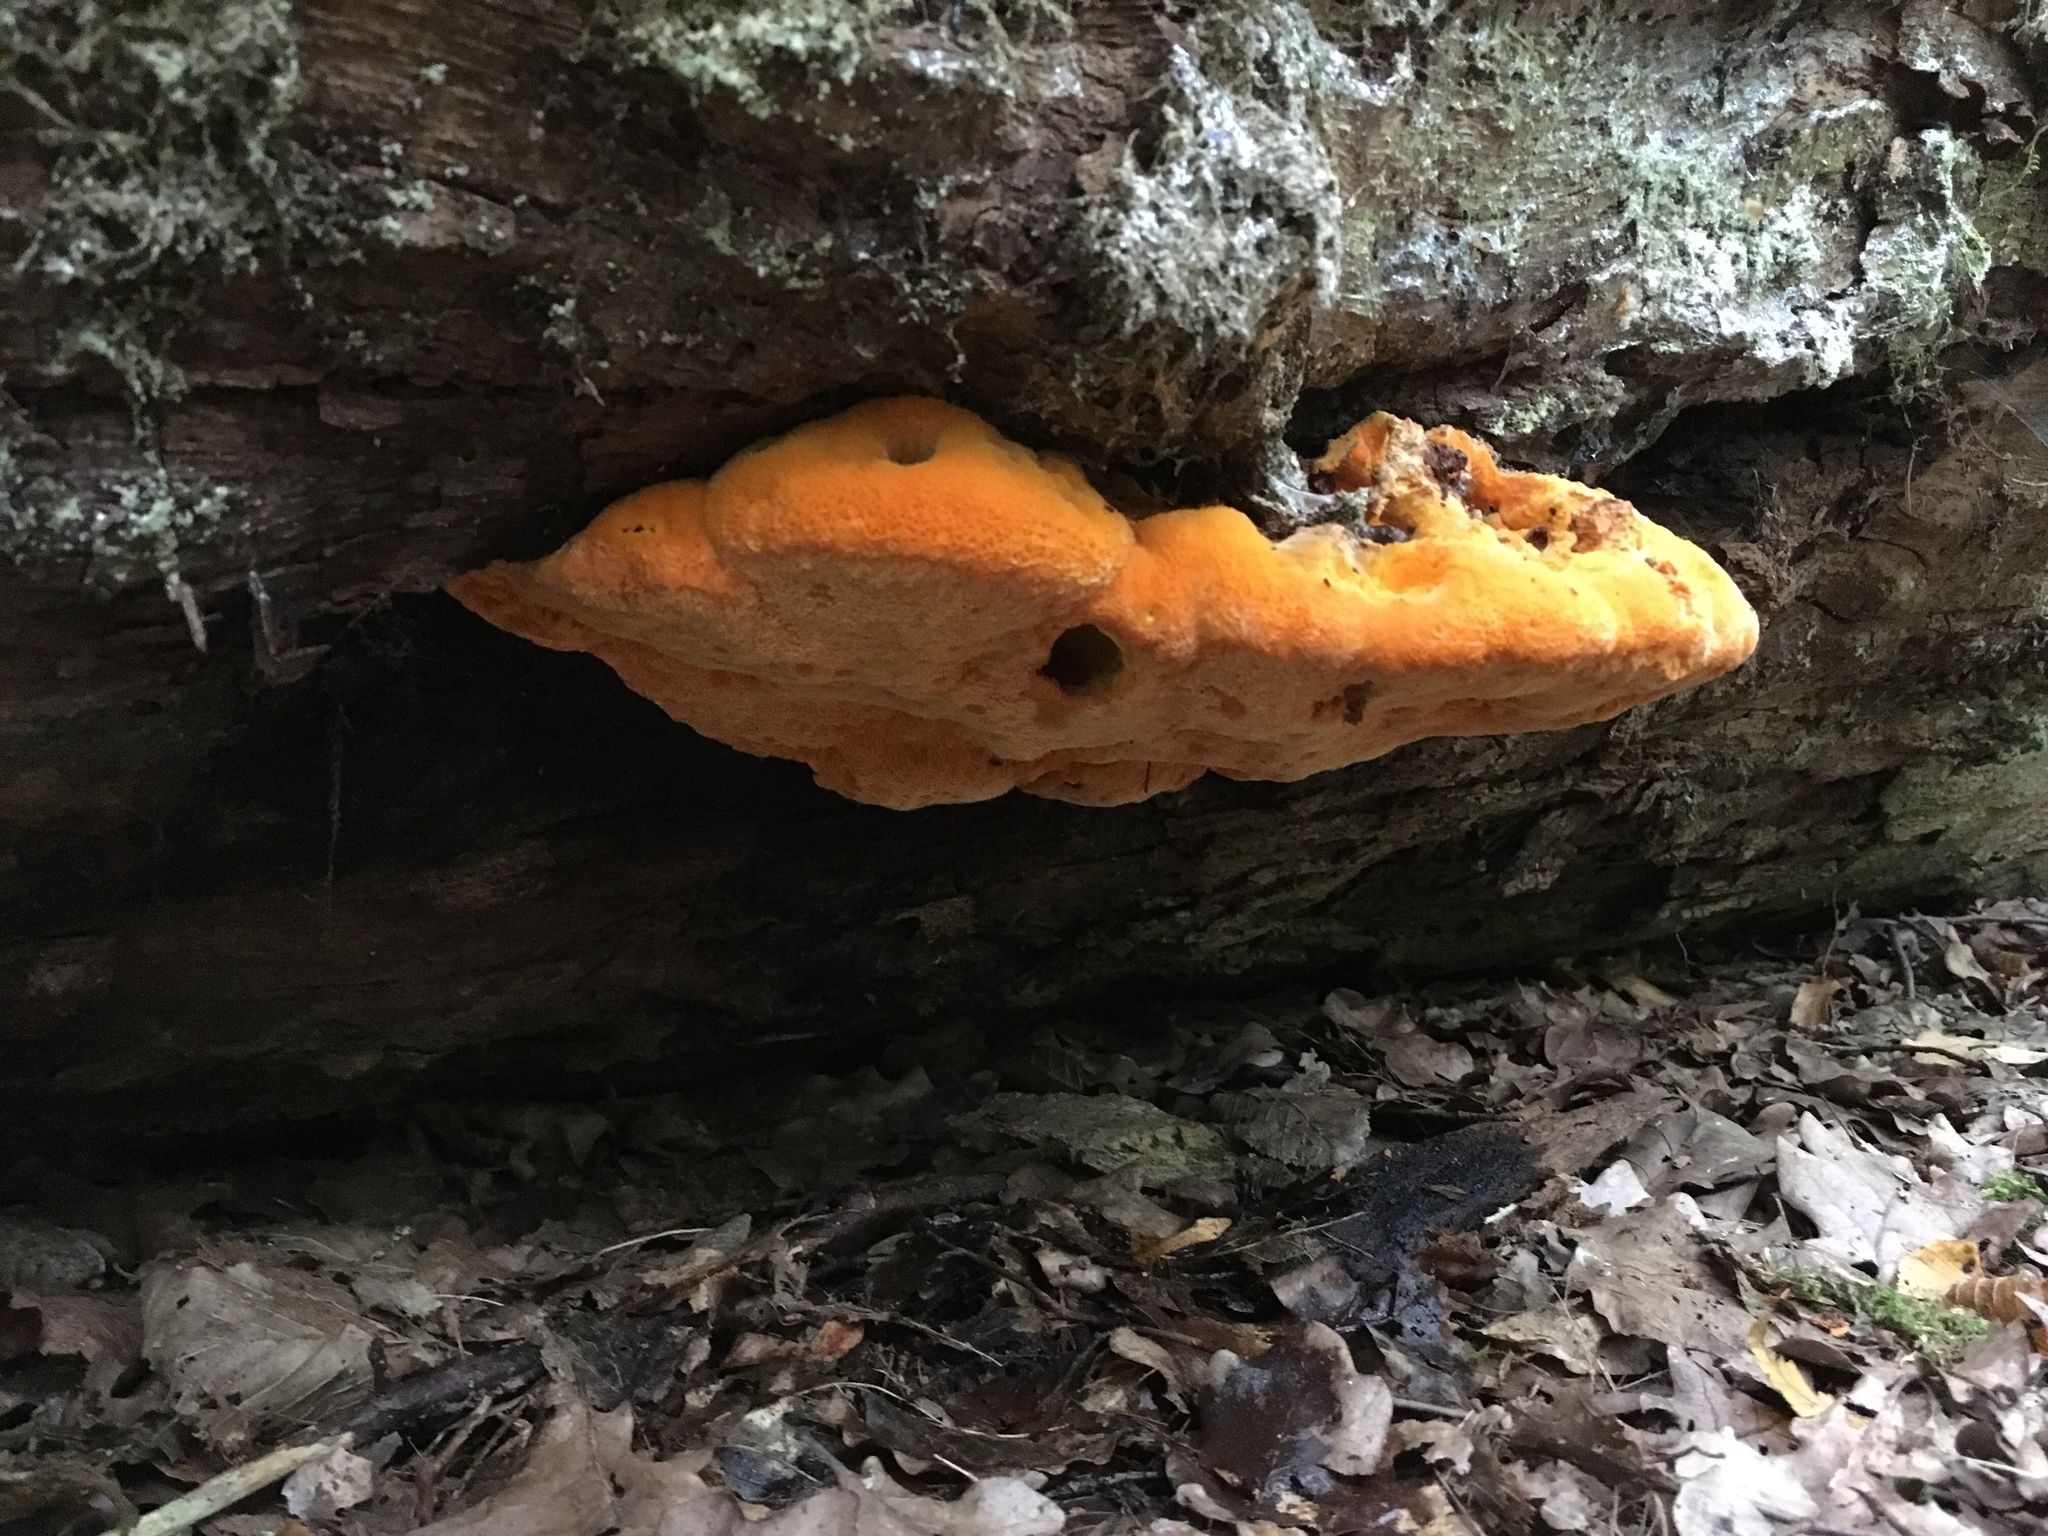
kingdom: Fungi
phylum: Basidiomycota
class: Agaricomycetes
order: Polyporales
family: Phanerochaetaceae
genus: Hapalopilus
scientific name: Hapalopilus croceus
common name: Orange polypore
